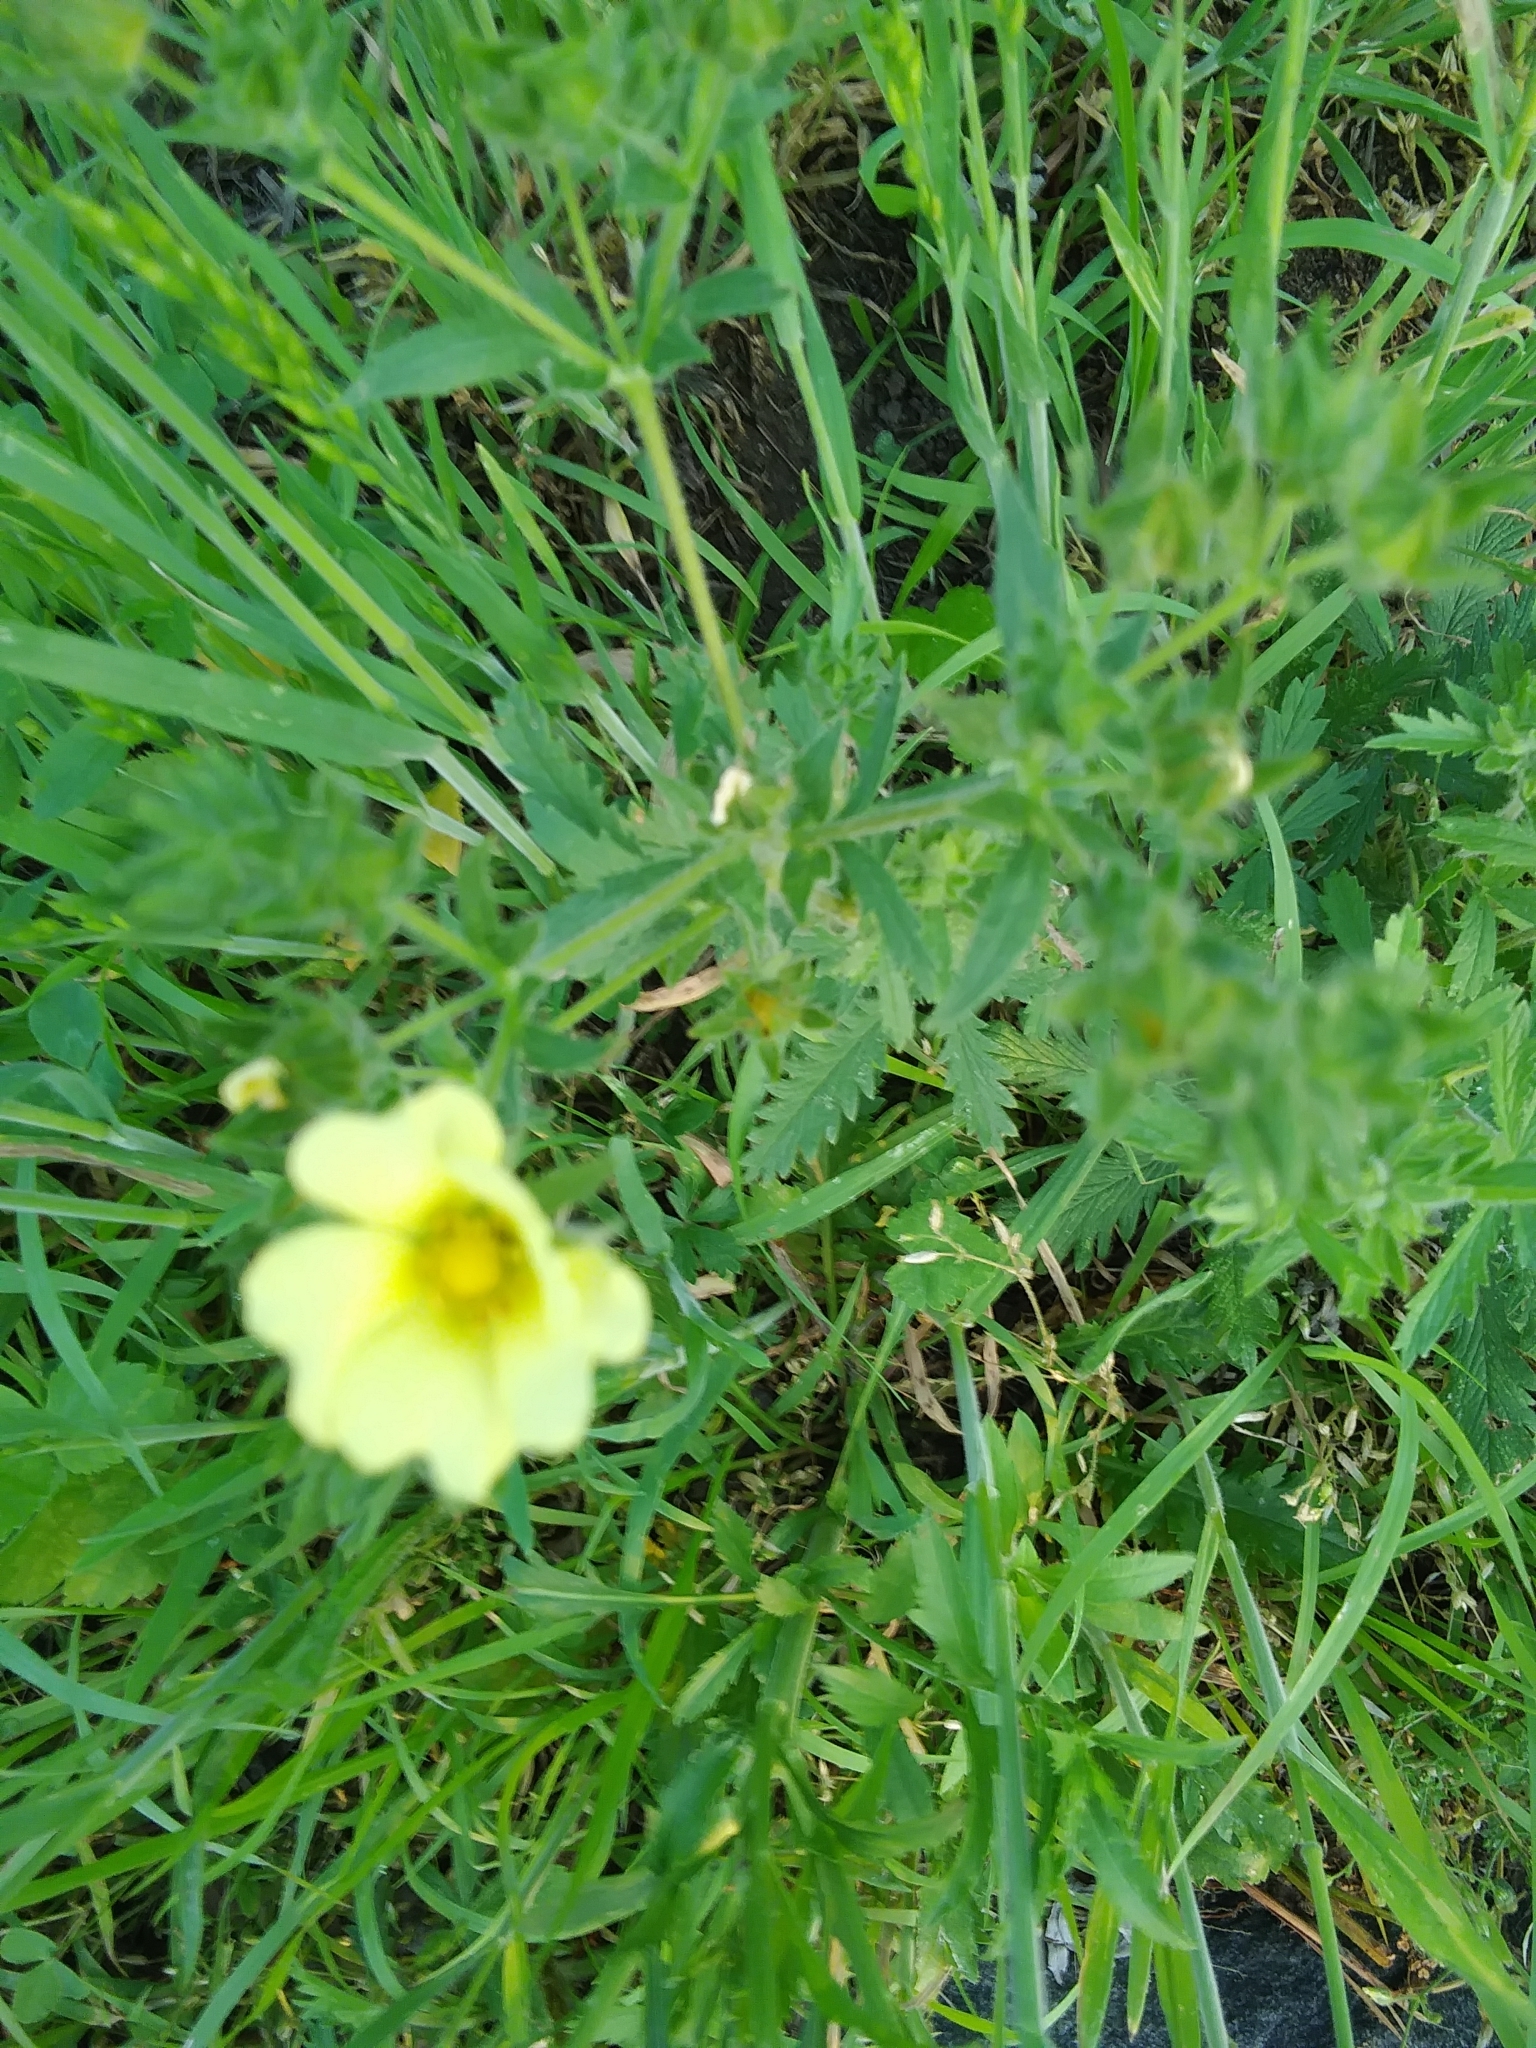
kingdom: Plantae
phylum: Tracheophyta
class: Magnoliopsida
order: Rosales
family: Rosaceae
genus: Potentilla
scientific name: Potentilla recta
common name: Sulphur cinquefoil
